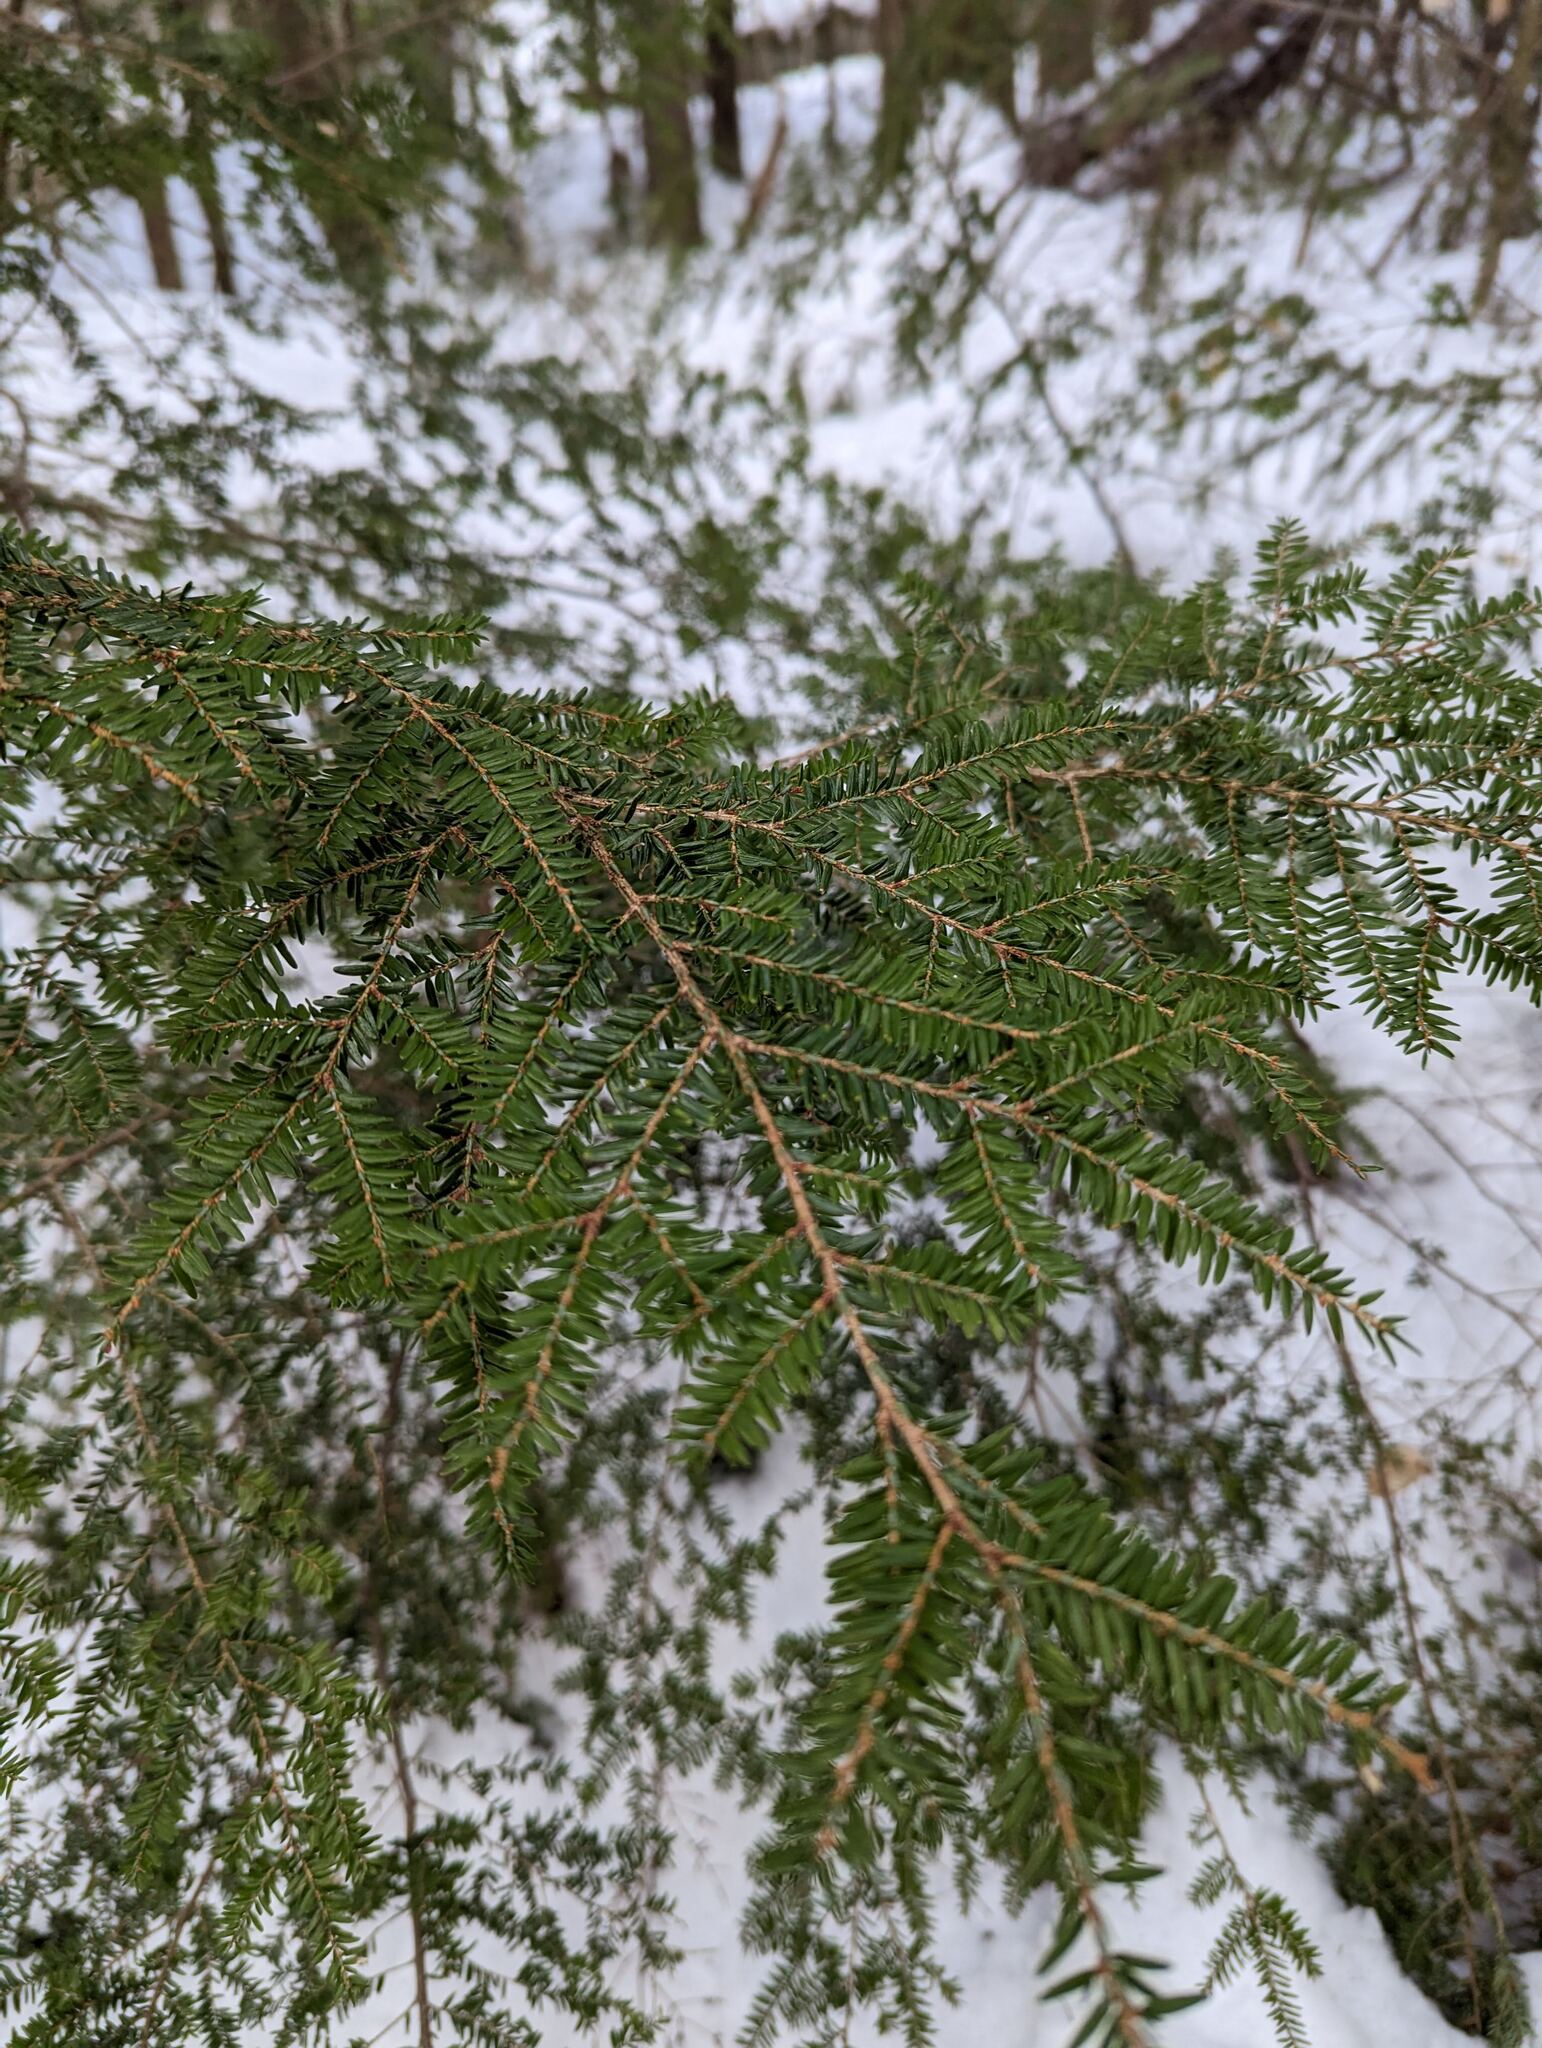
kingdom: Plantae
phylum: Tracheophyta
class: Pinopsida
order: Pinales
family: Pinaceae
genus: Tsuga
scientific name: Tsuga canadensis
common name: Eastern hemlock
